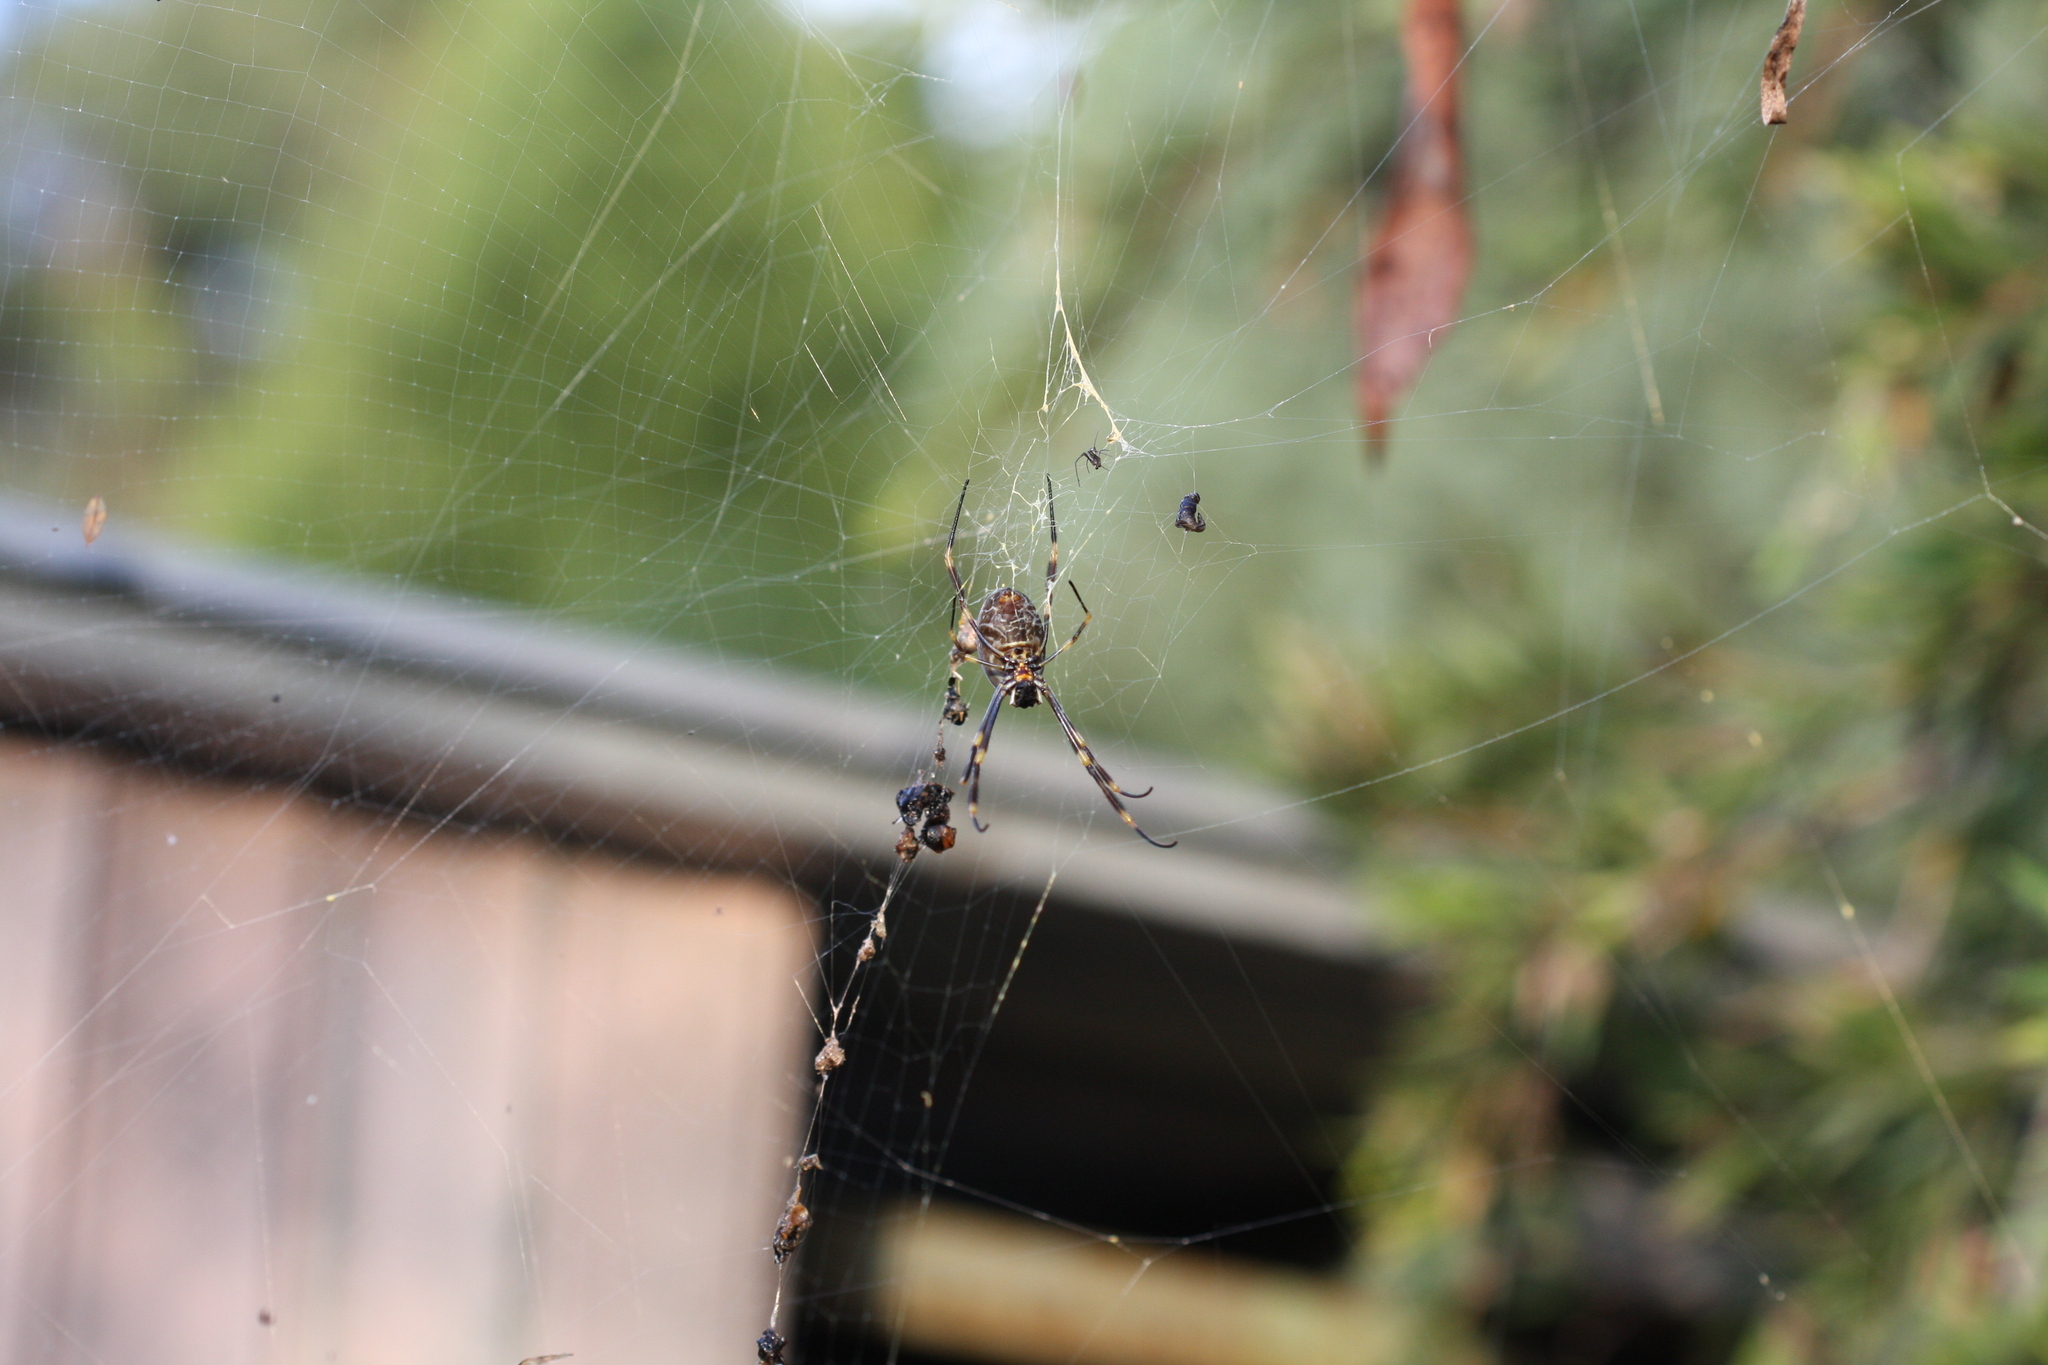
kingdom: Animalia
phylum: Arthropoda
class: Arachnida
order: Araneae
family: Araneidae
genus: Trichonephila
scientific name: Trichonephila plumipes
